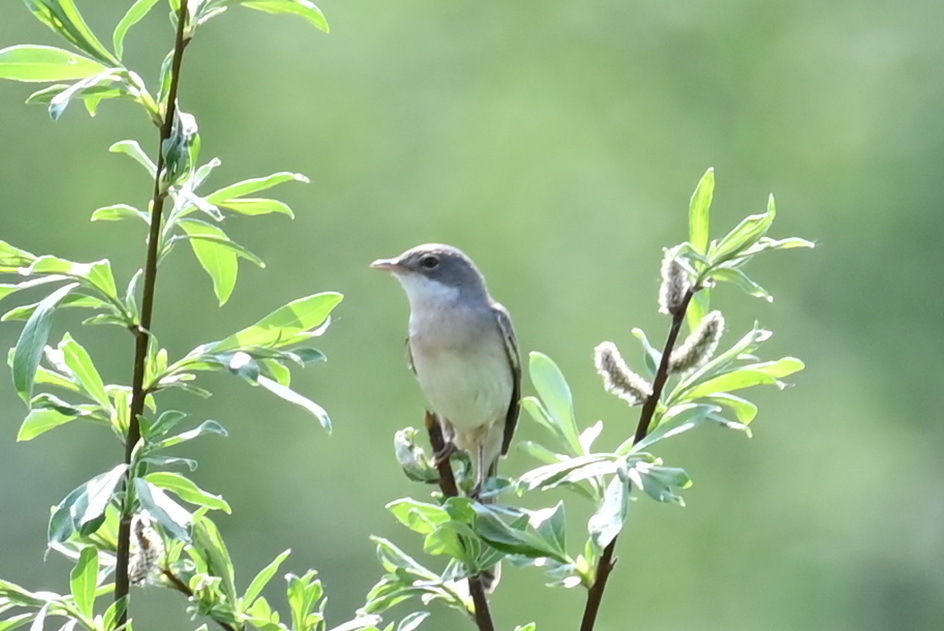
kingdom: Animalia
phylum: Chordata
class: Aves
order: Passeriformes
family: Sylviidae
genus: Sylvia
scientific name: Sylvia communis
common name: Common whitethroat
